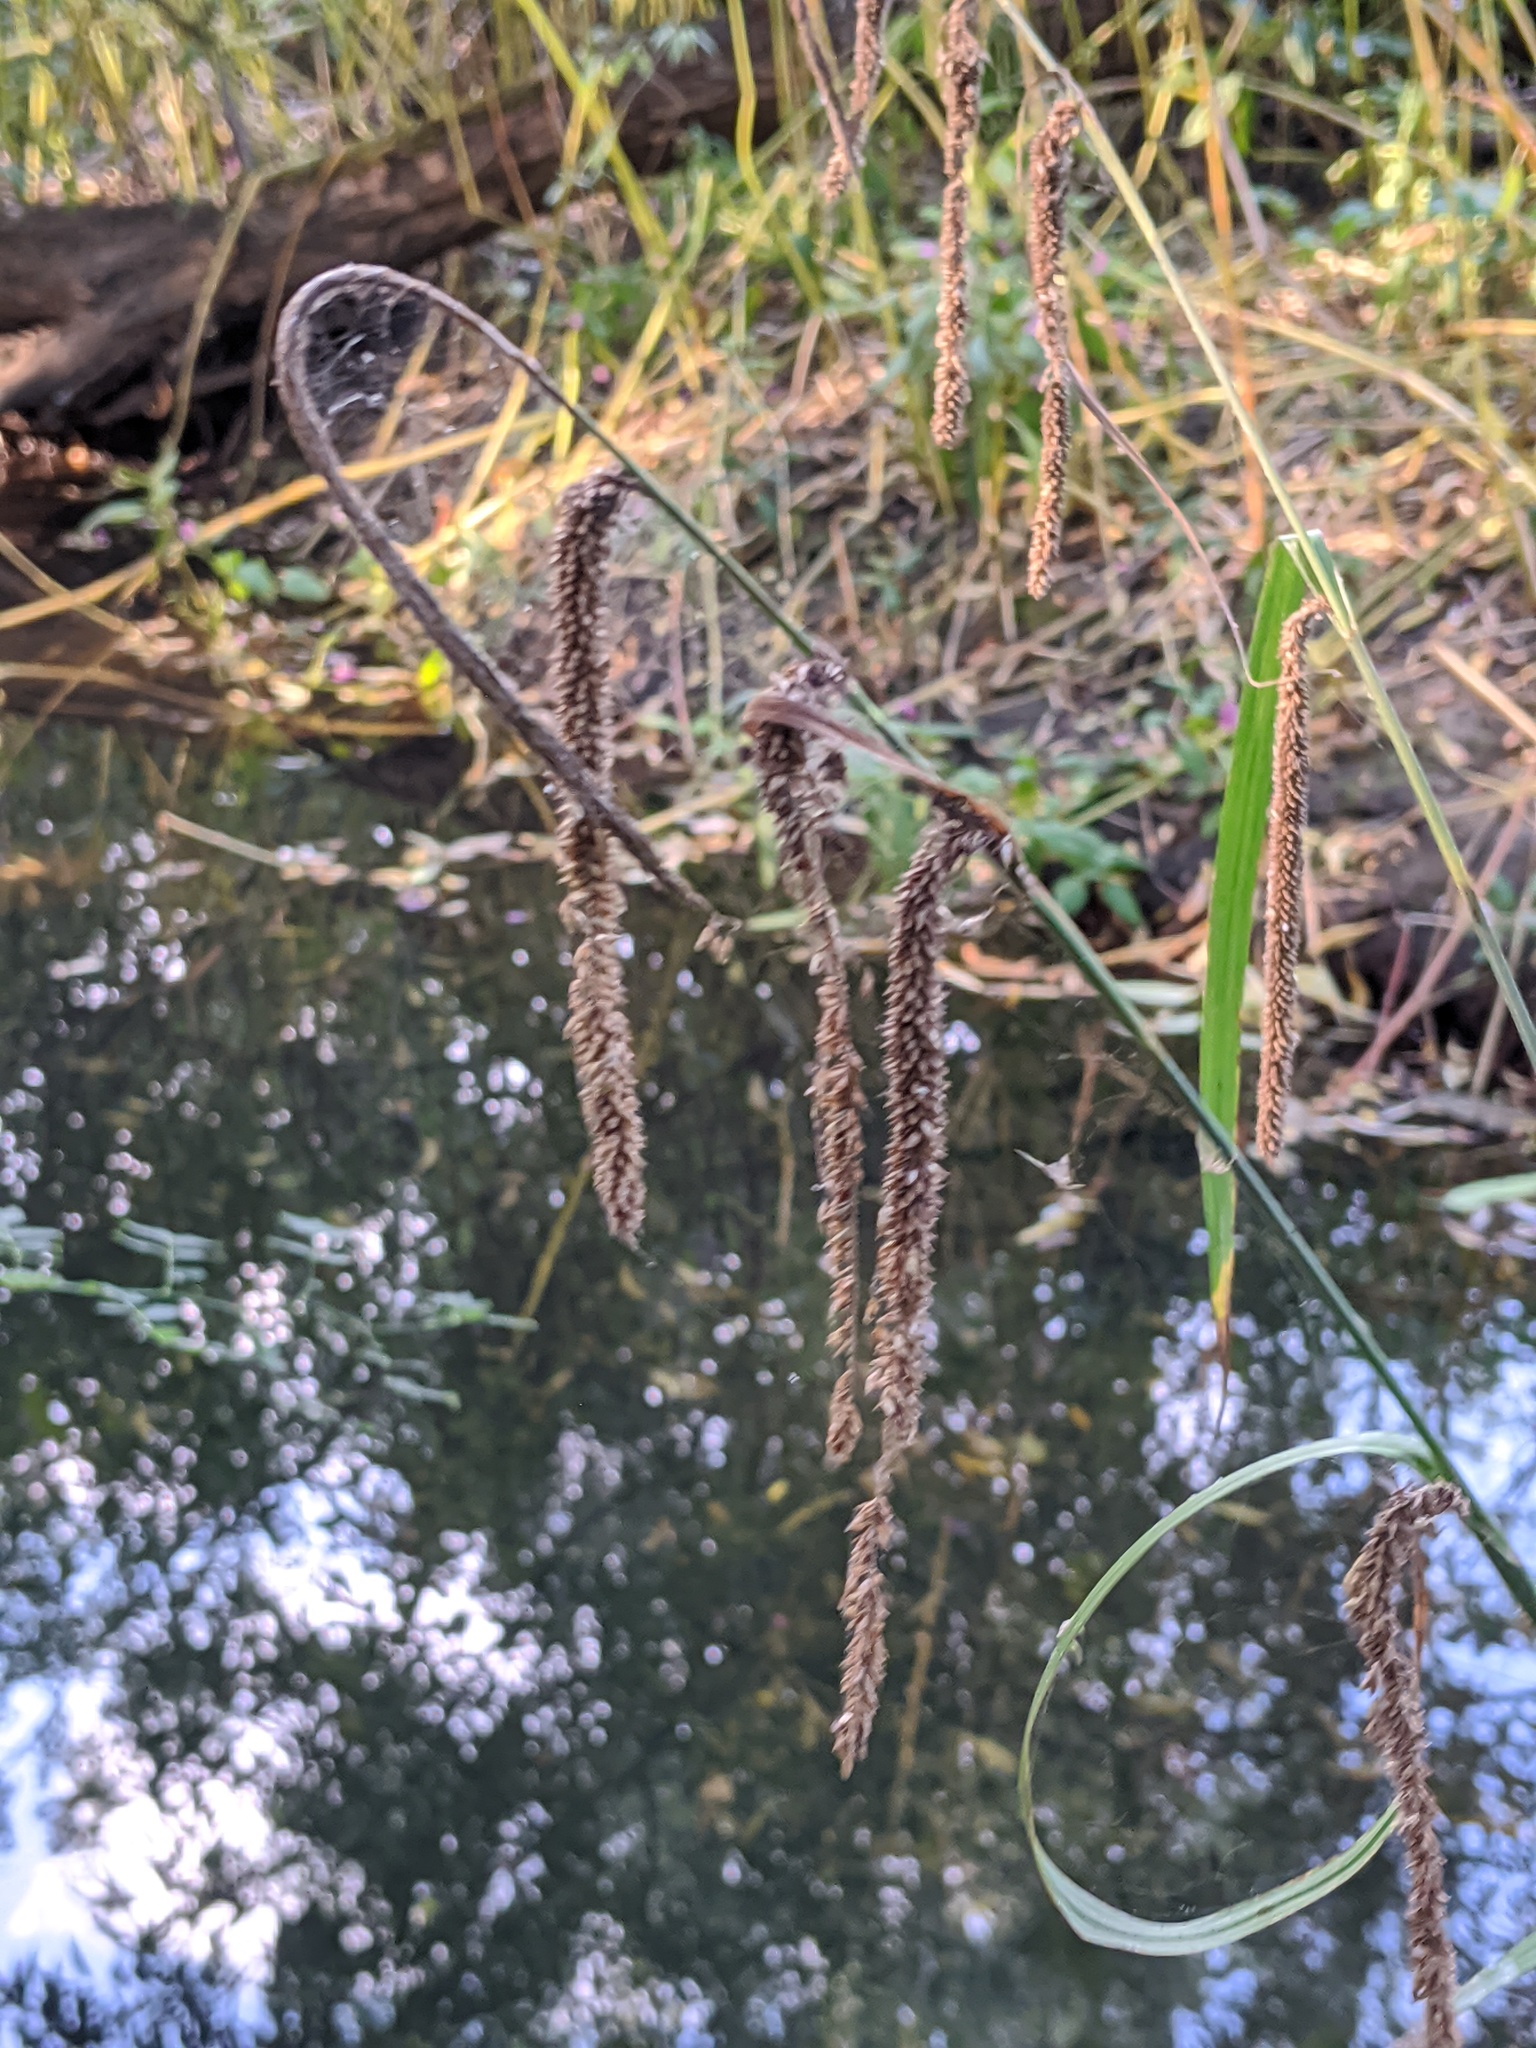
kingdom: Plantae
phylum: Tracheophyta
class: Liliopsida
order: Poales
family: Cyperaceae
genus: Carex
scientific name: Carex pendula
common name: Pendulous sedge
